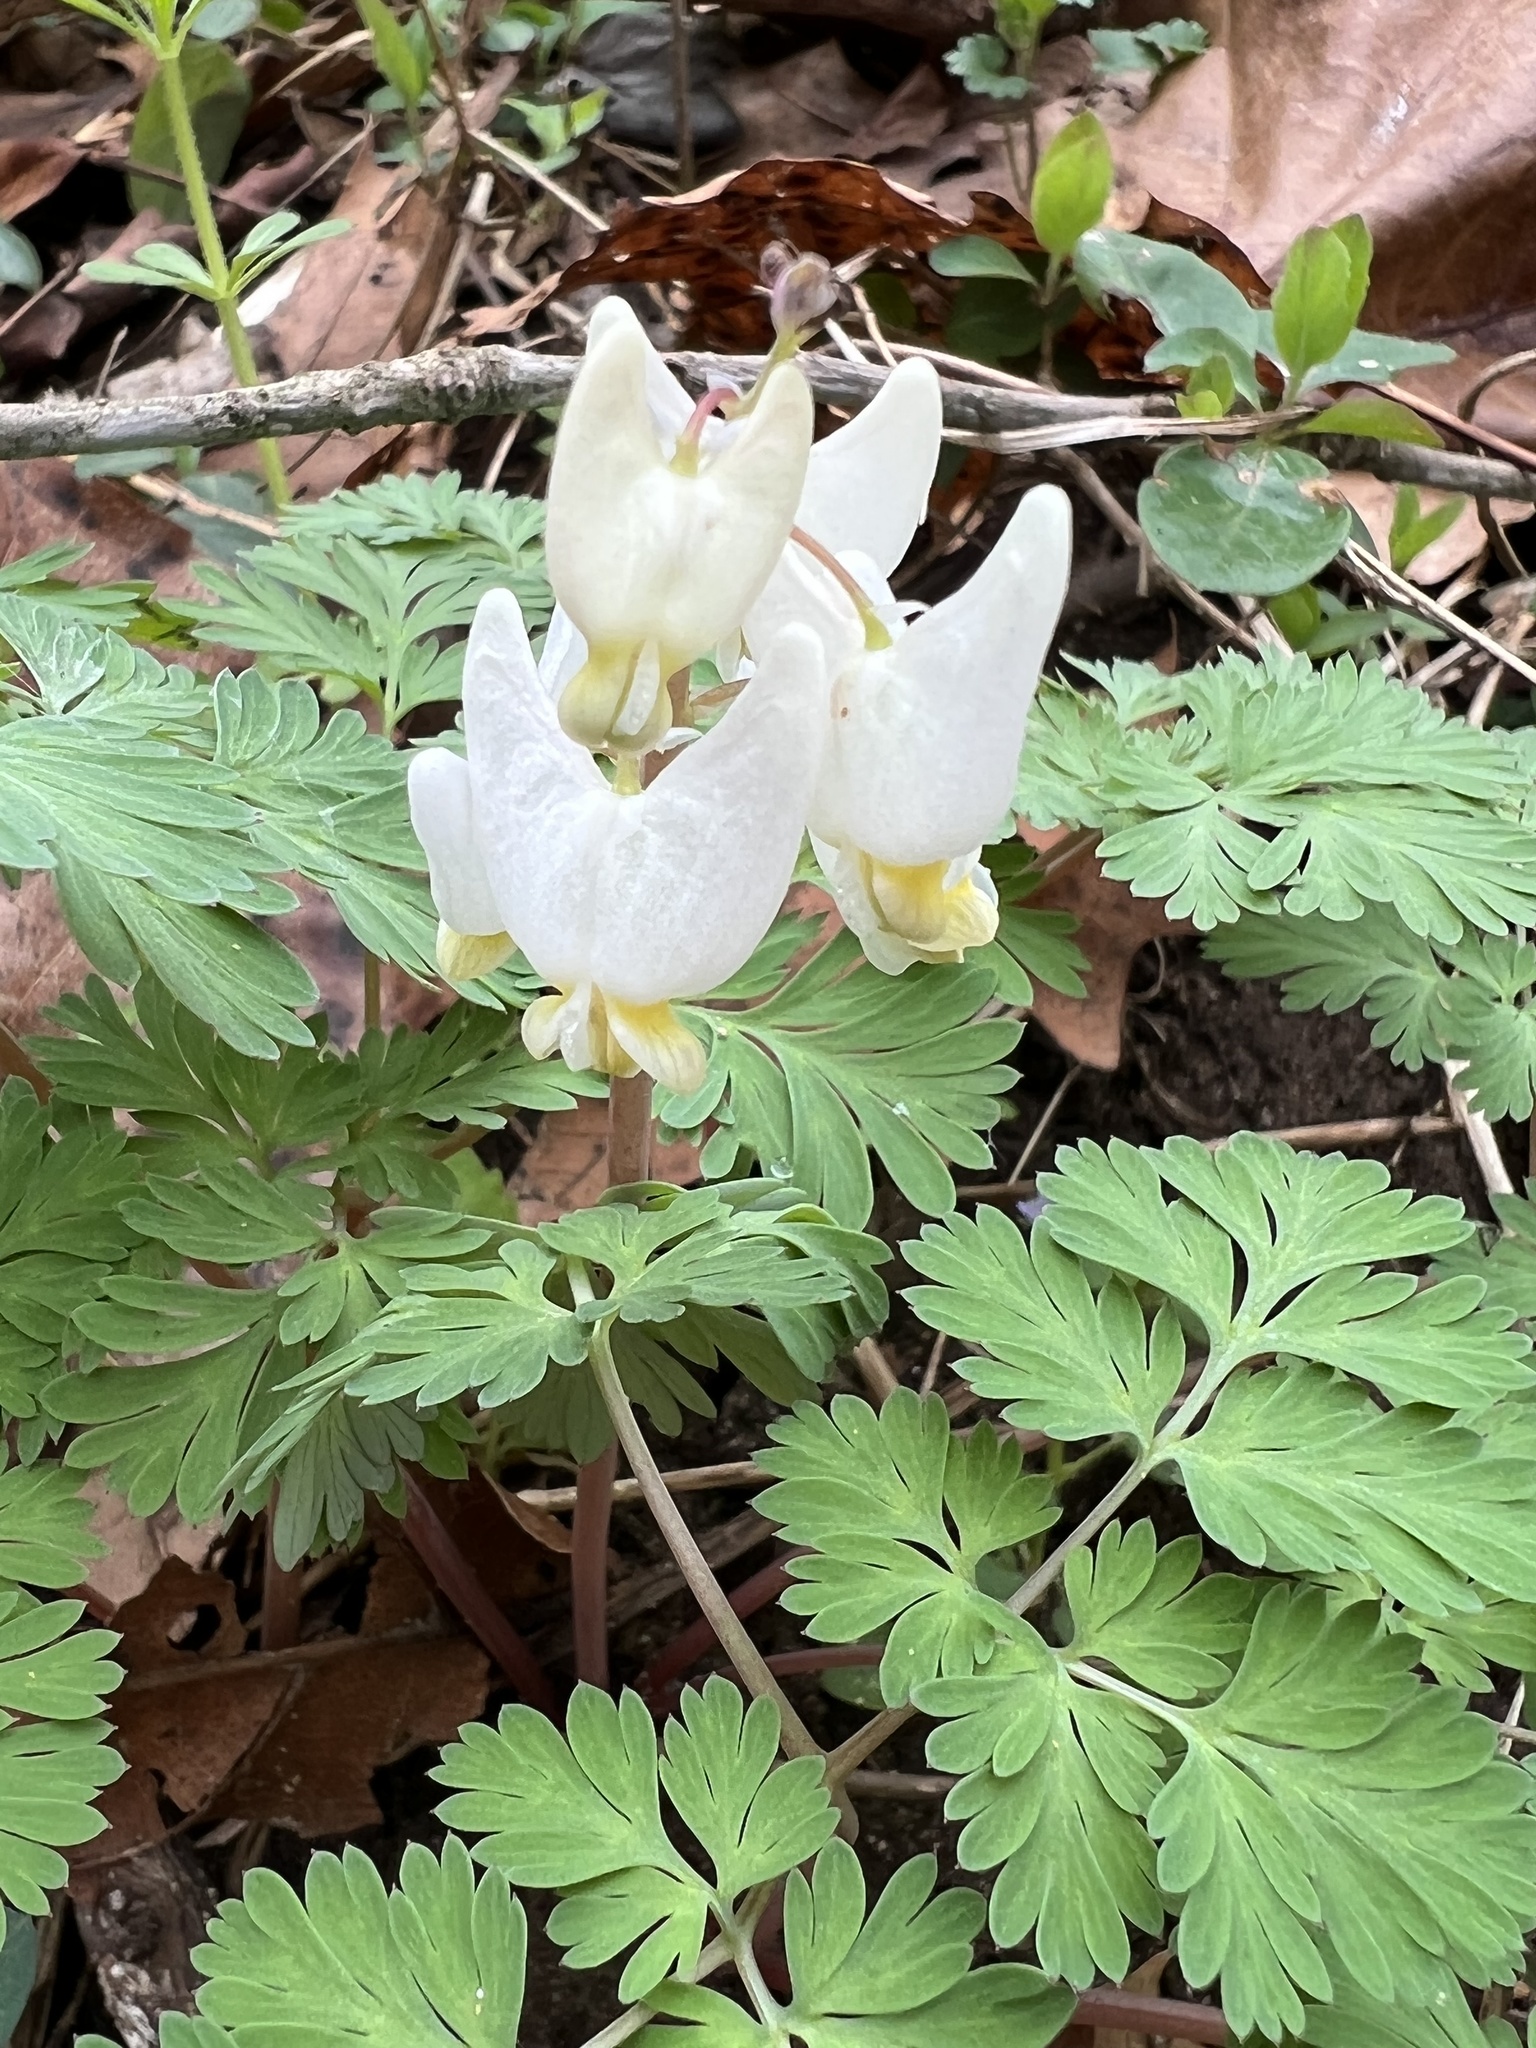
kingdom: Plantae
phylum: Tracheophyta
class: Magnoliopsida
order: Ranunculales
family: Papaveraceae
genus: Dicentra
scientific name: Dicentra cucullaria
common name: Dutchman's breeches
